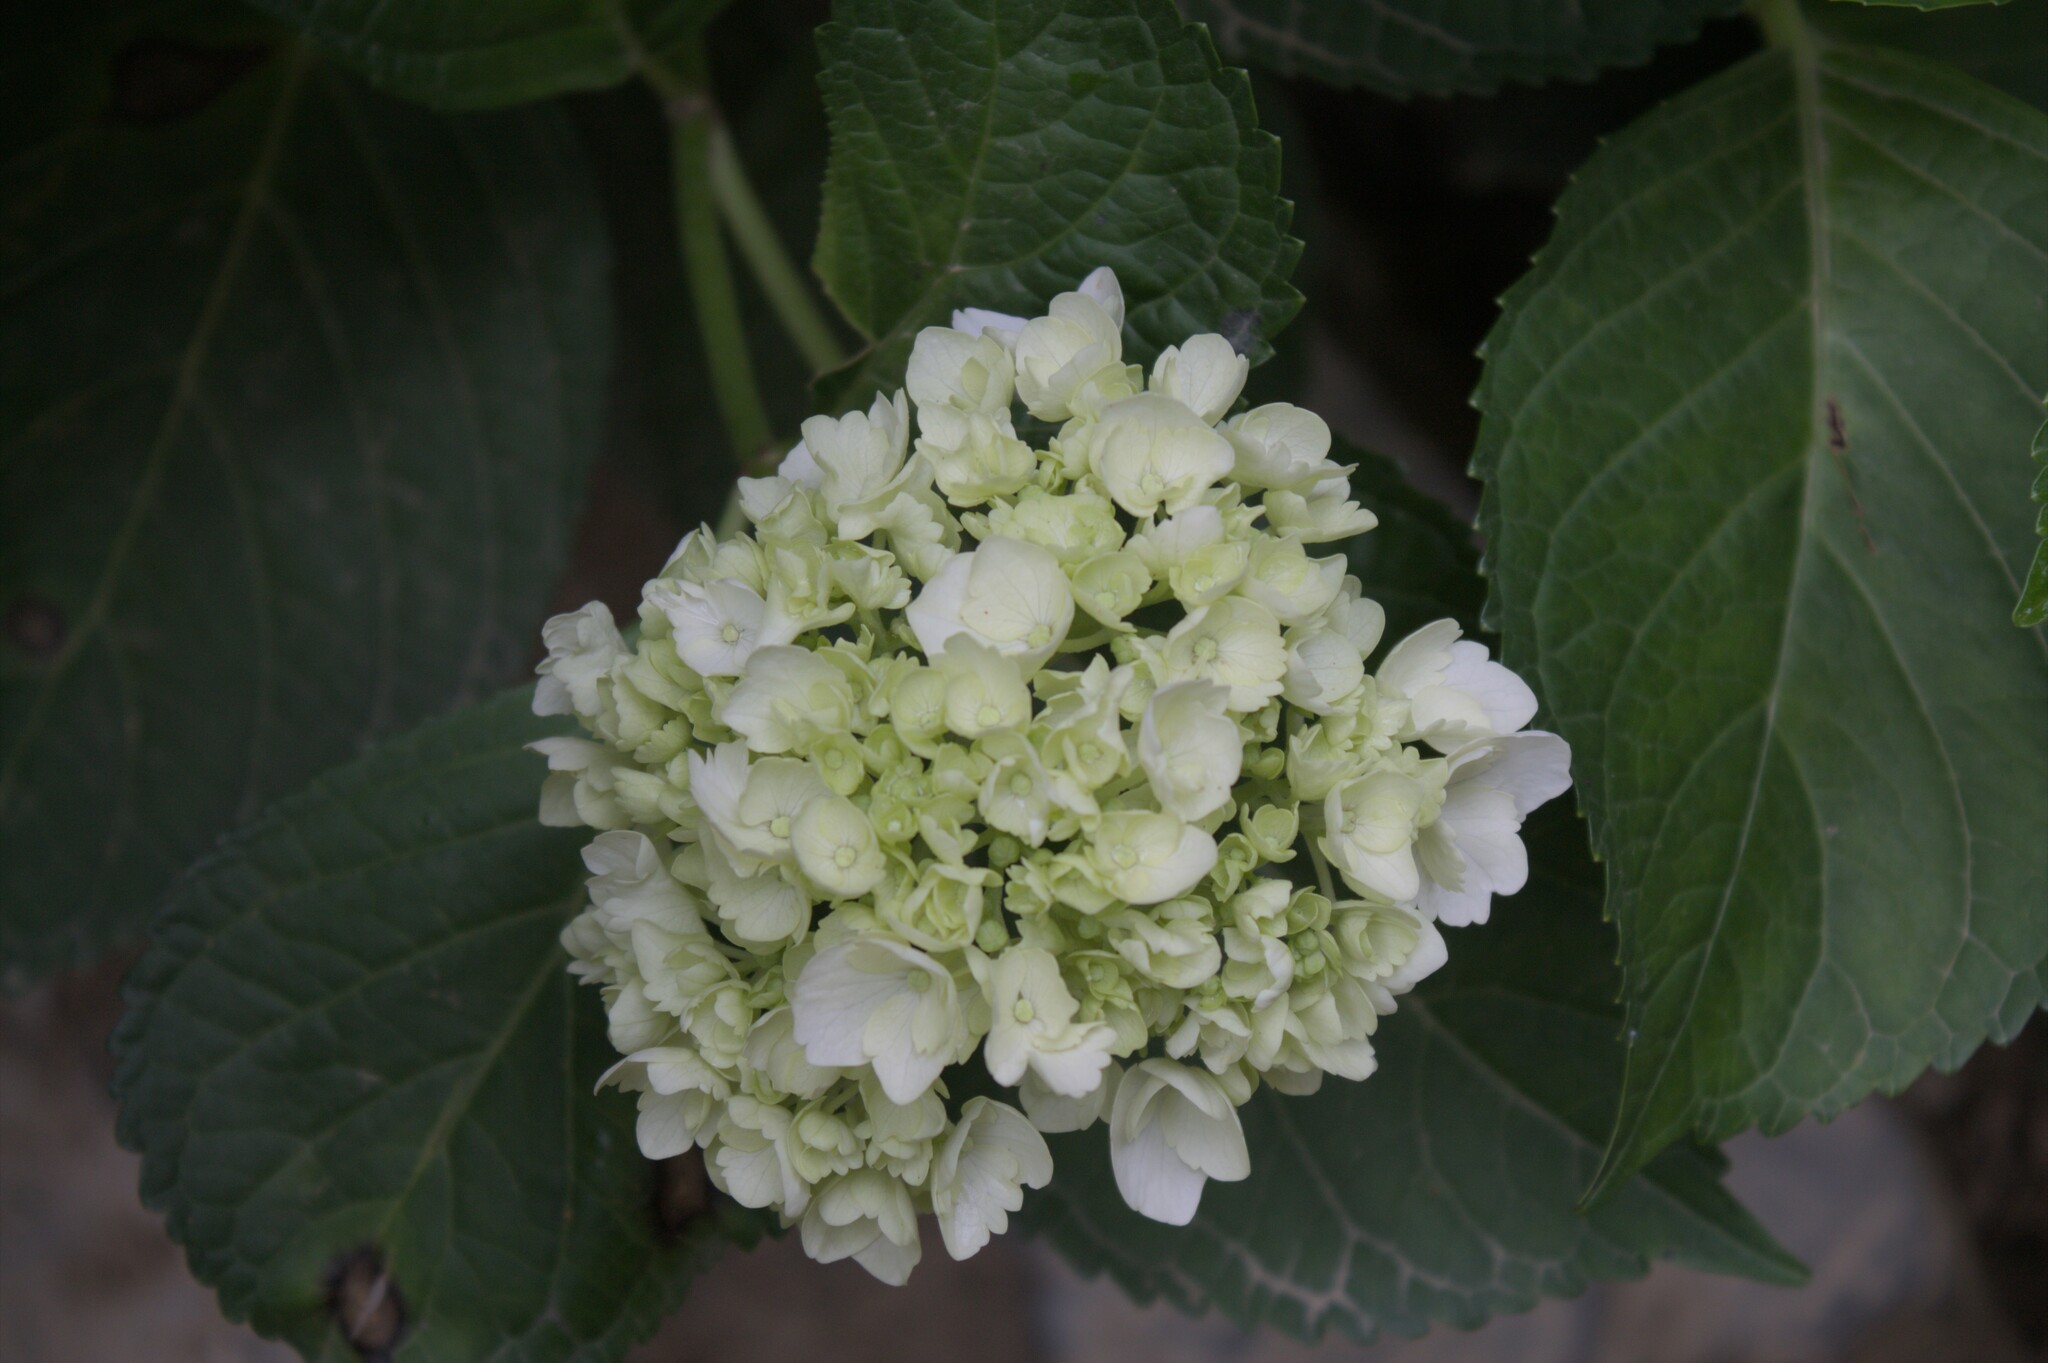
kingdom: Plantae
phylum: Tracheophyta
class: Magnoliopsida
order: Cornales
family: Hydrangeaceae
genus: Hydrangea
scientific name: Hydrangea macrophylla
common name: Hydrangea
